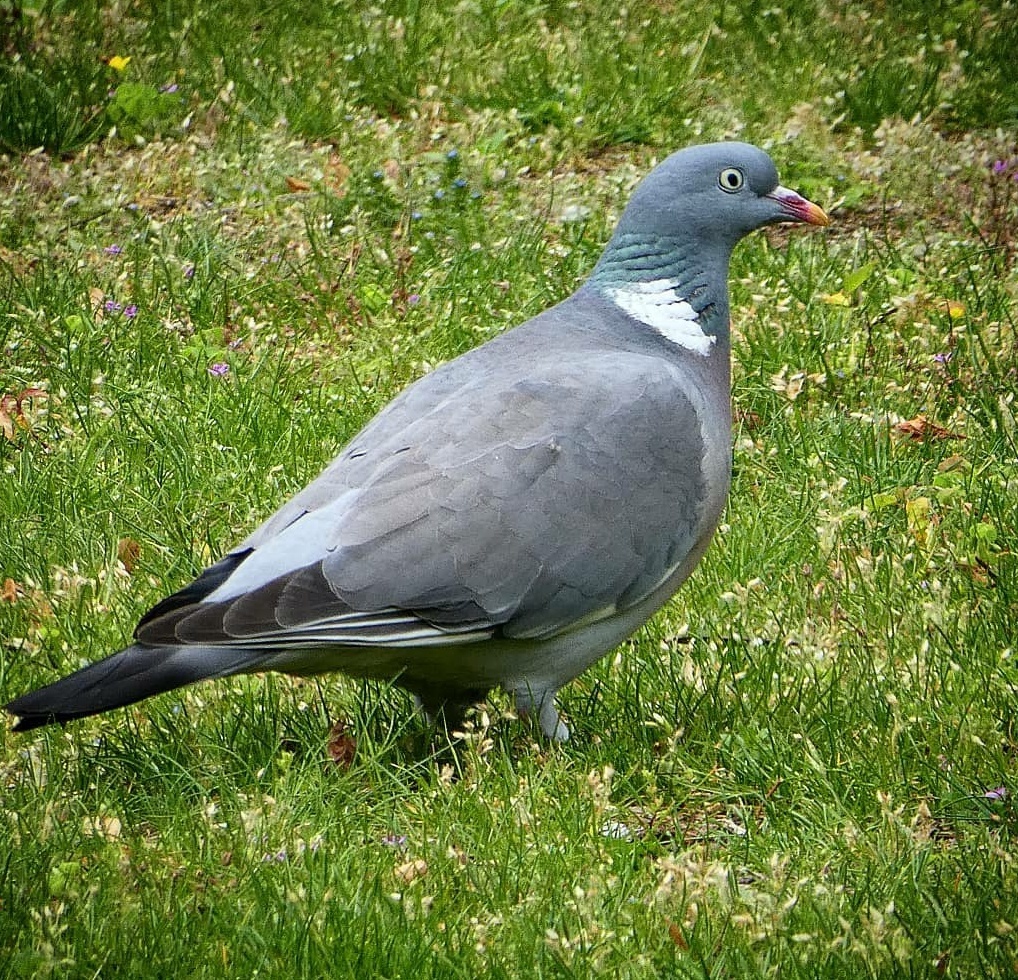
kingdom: Animalia
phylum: Chordata
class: Aves
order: Columbiformes
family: Columbidae
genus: Columba
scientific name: Columba palumbus
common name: Common wood pigeon
